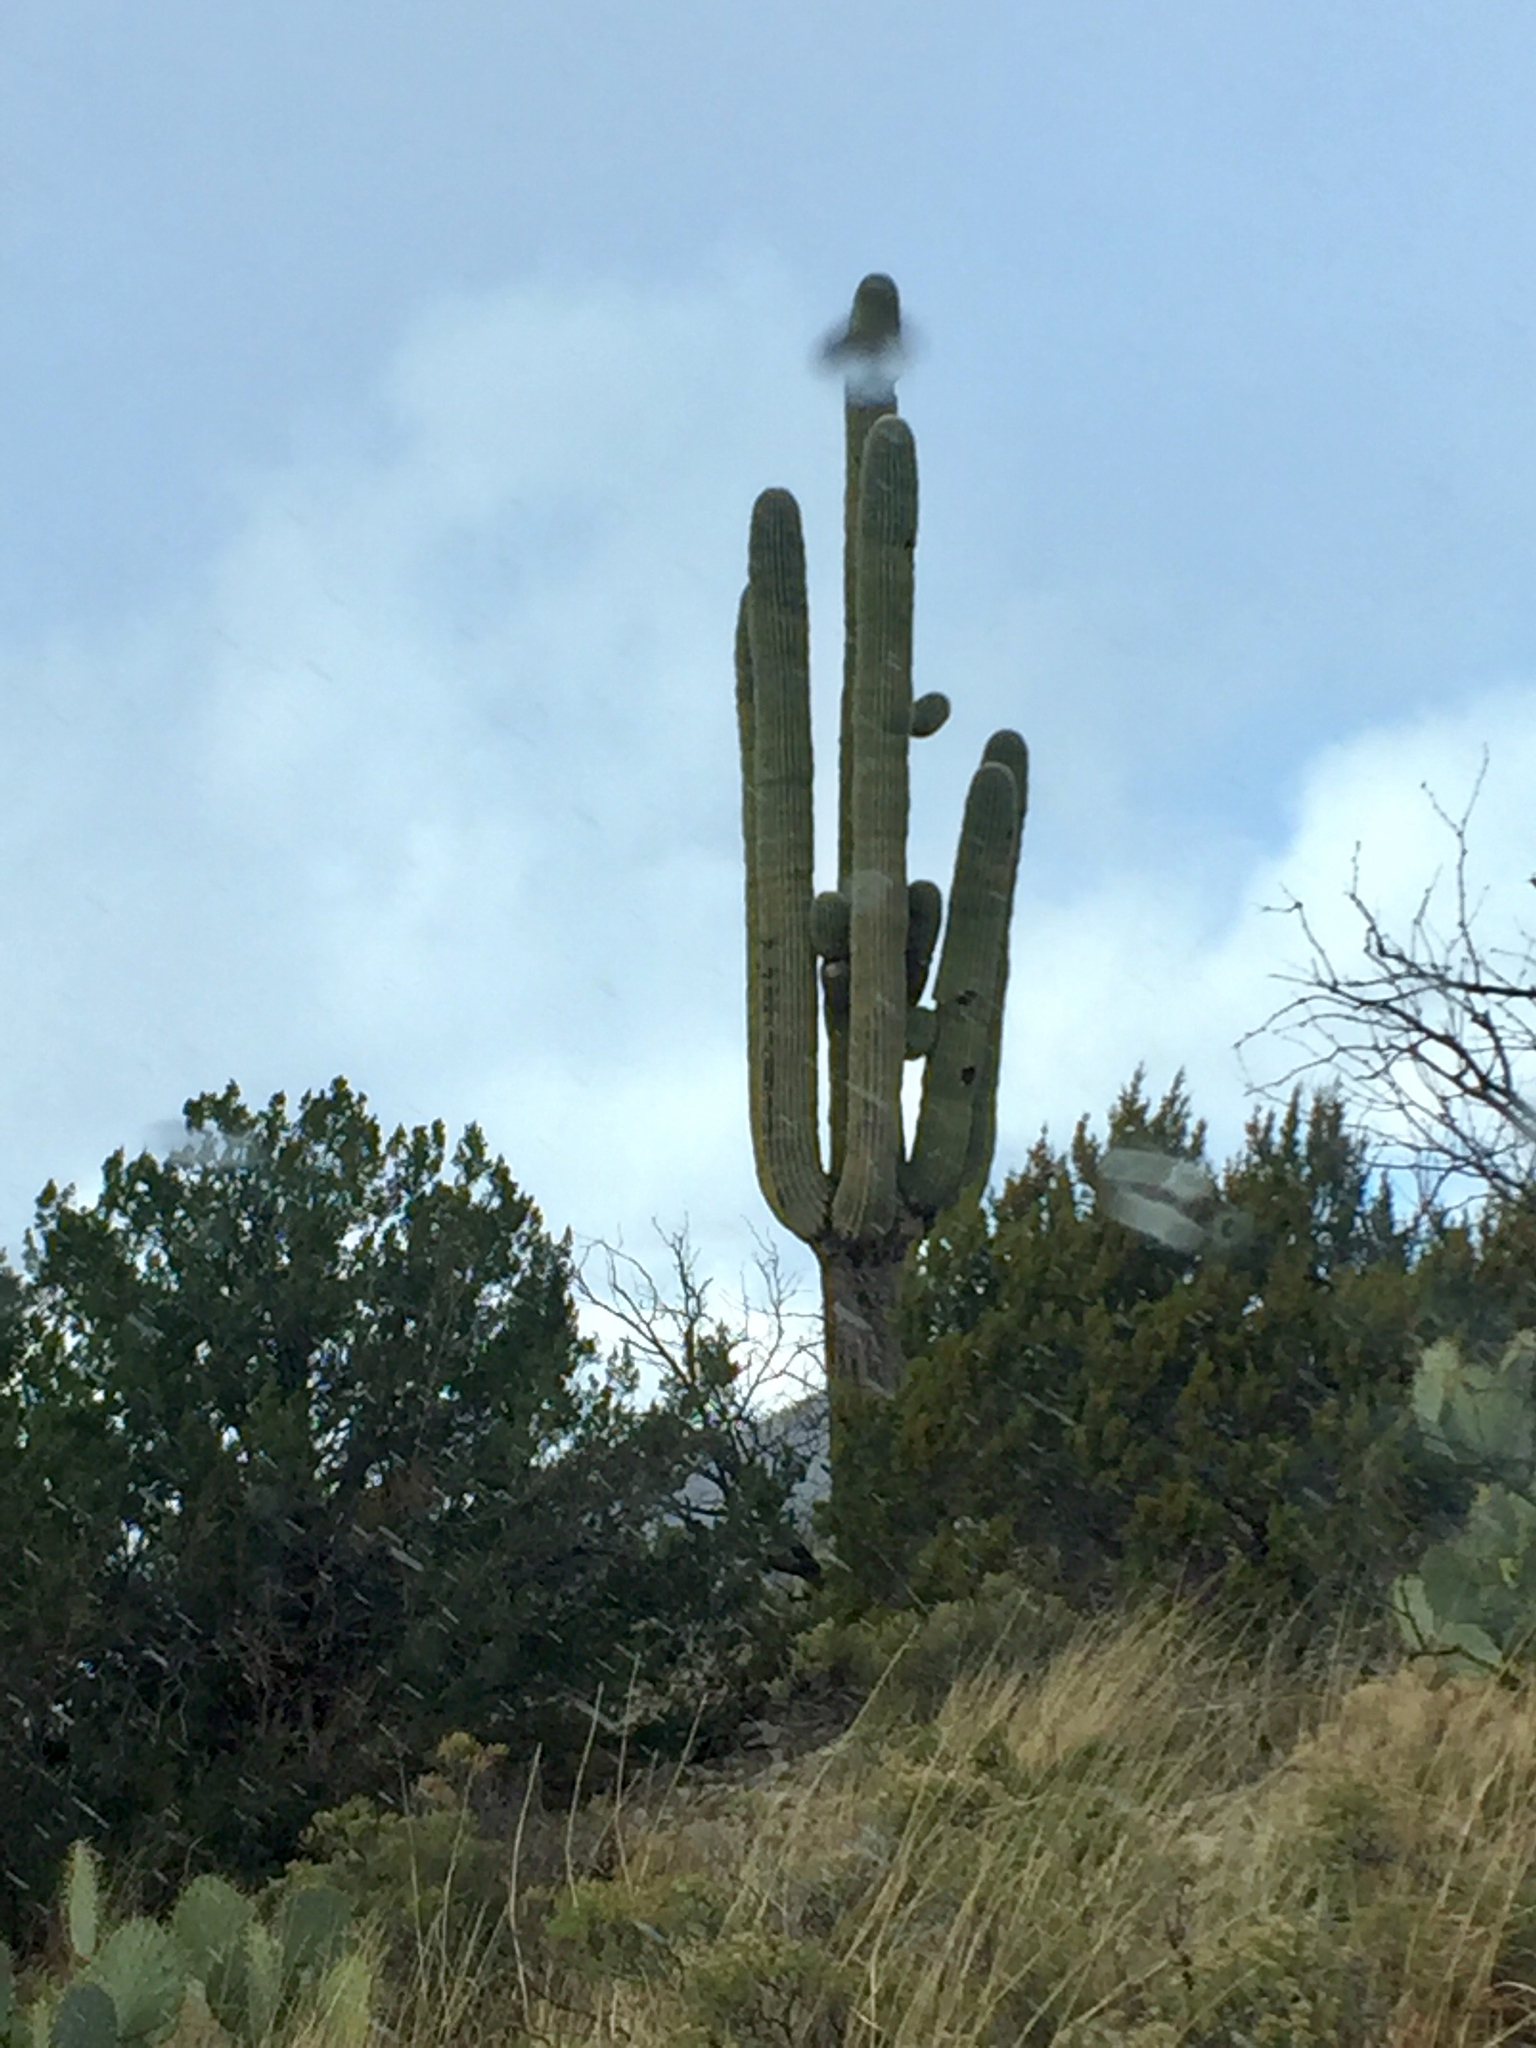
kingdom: Plantae
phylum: Tracheophyta
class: Magnoliopsida
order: Caryophyllales
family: Cactaceae
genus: Carnegiea
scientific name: Carnegiea gigantea
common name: Saguaro
